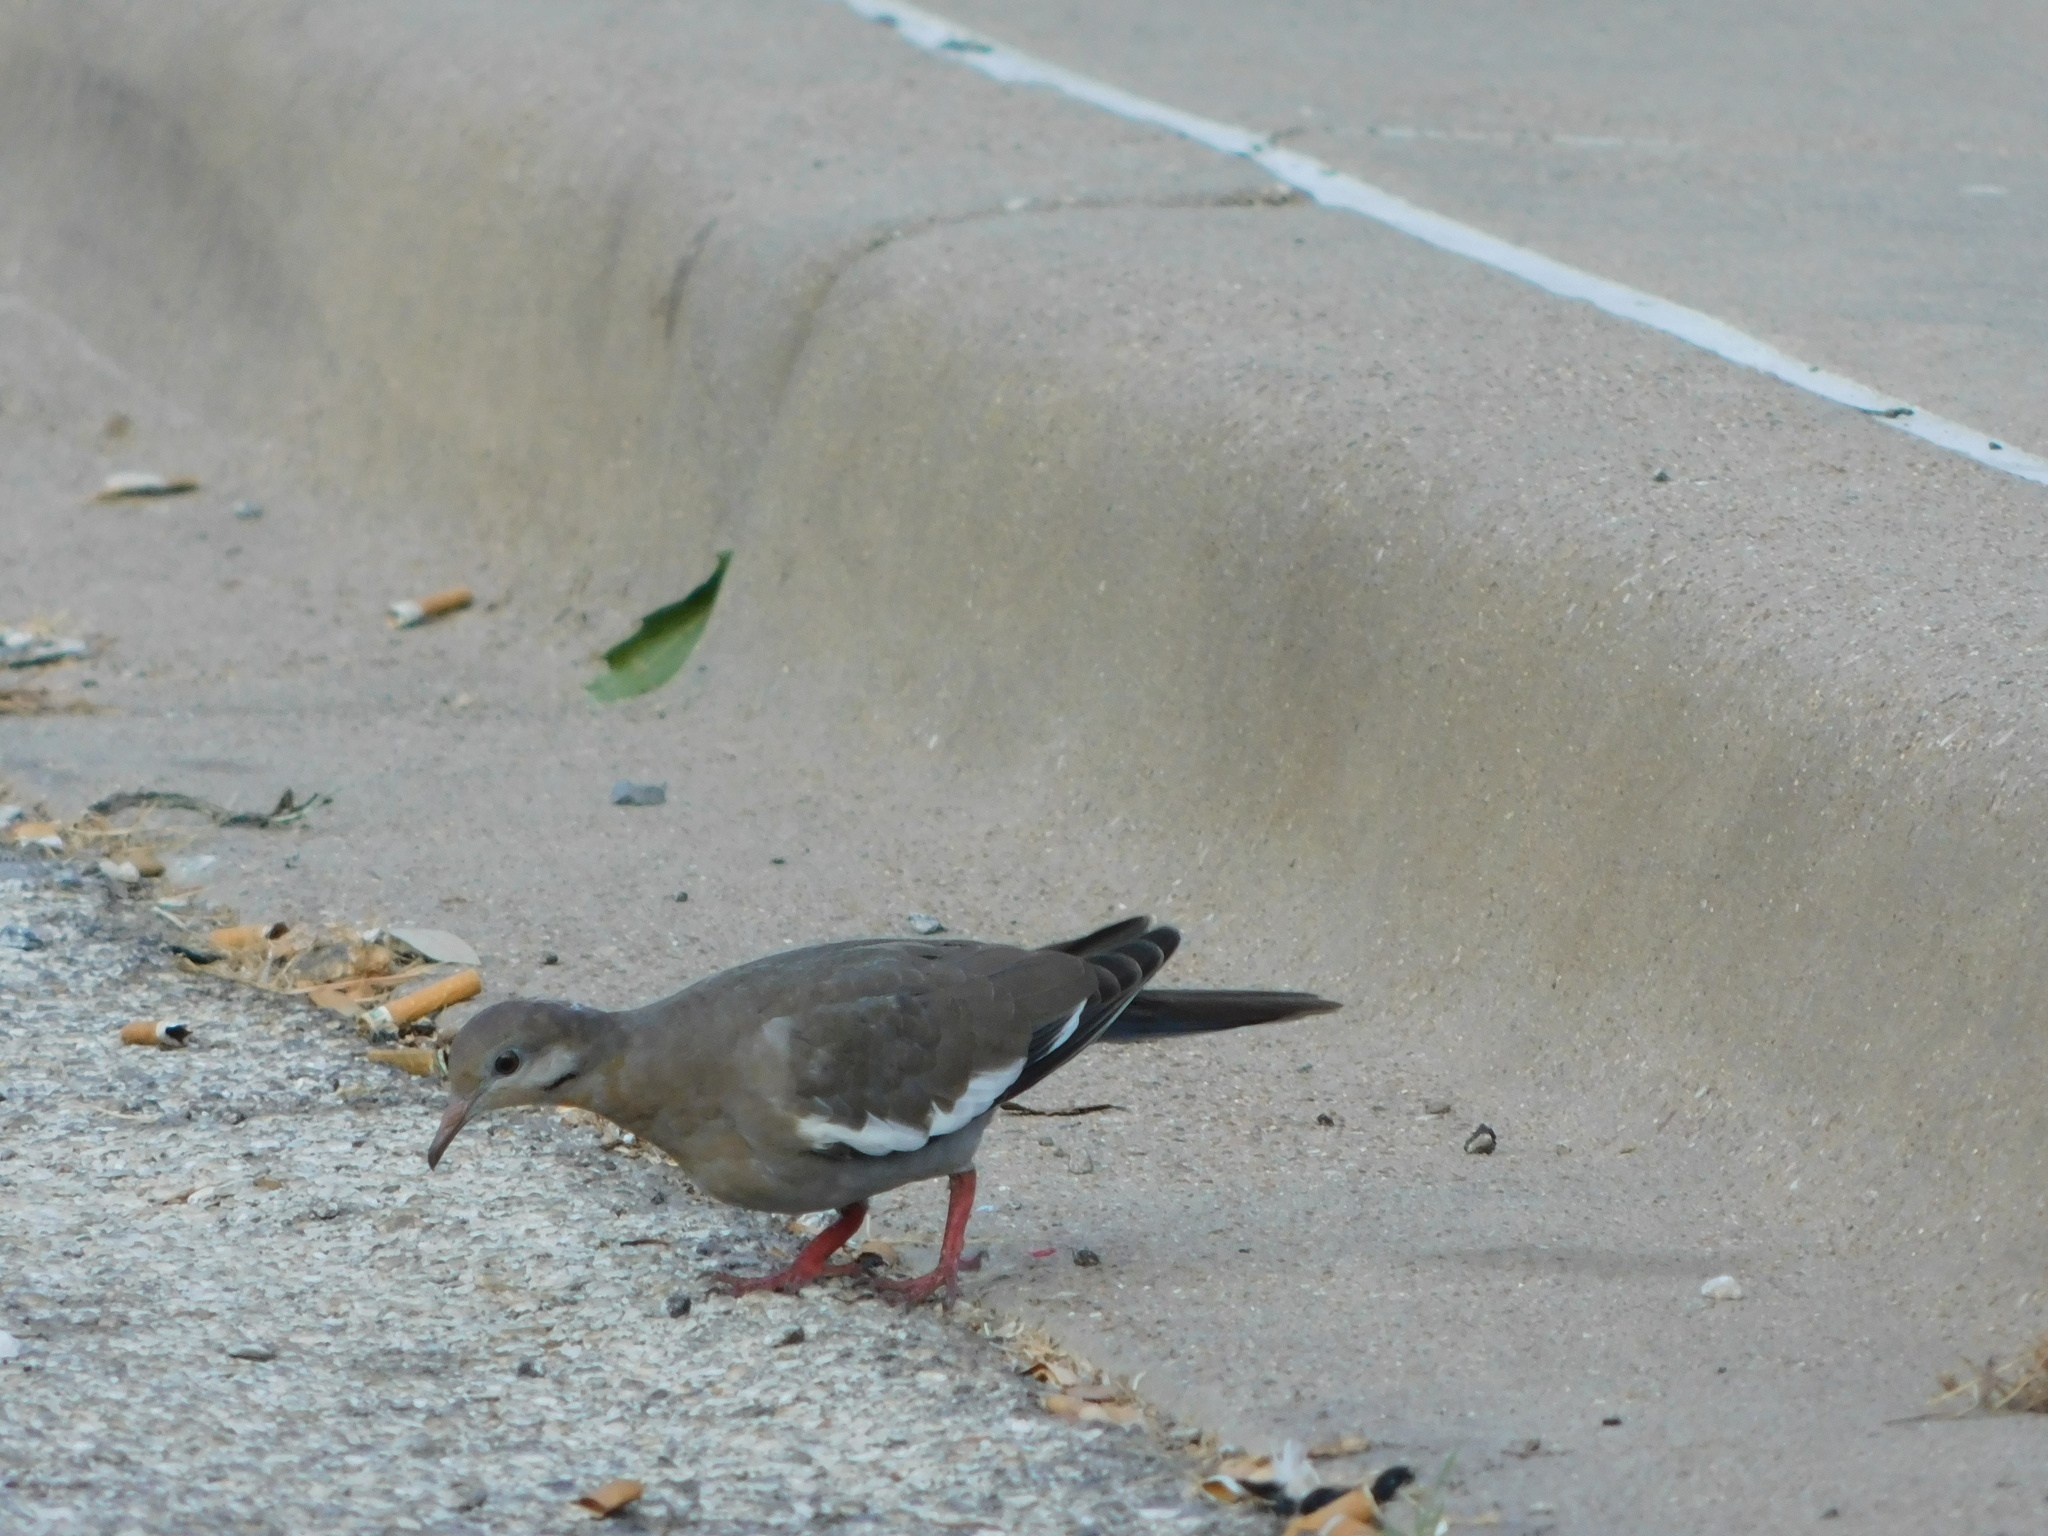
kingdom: Animalia
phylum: Chordata
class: Aves
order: Columbiformes
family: Columbidae
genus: Zenaida
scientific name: Zenaida asiatica
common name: White-winged dove
